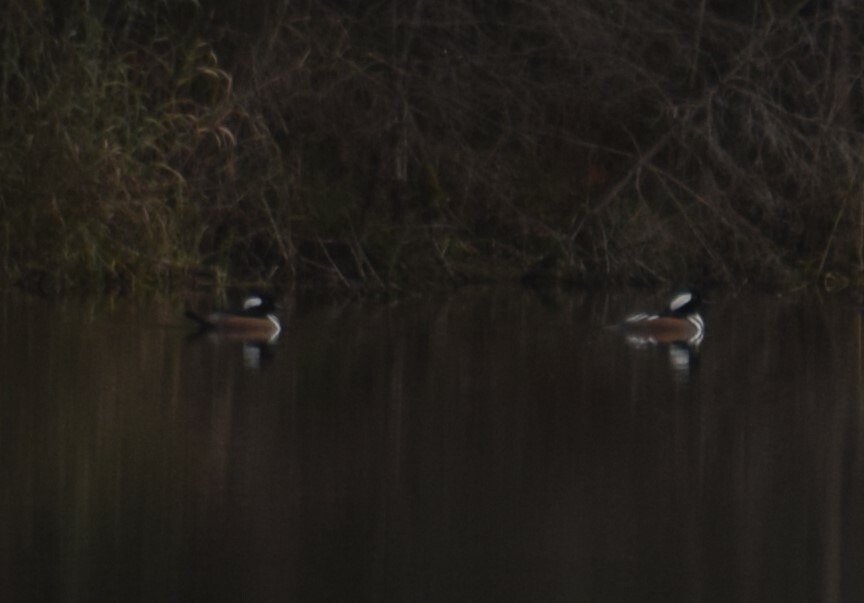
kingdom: Animalia
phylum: Chordata
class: Aves
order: Anseriformes
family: Anatidae
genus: Lophodytes
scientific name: Lophodytes cucullatus
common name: Hooded merganser
